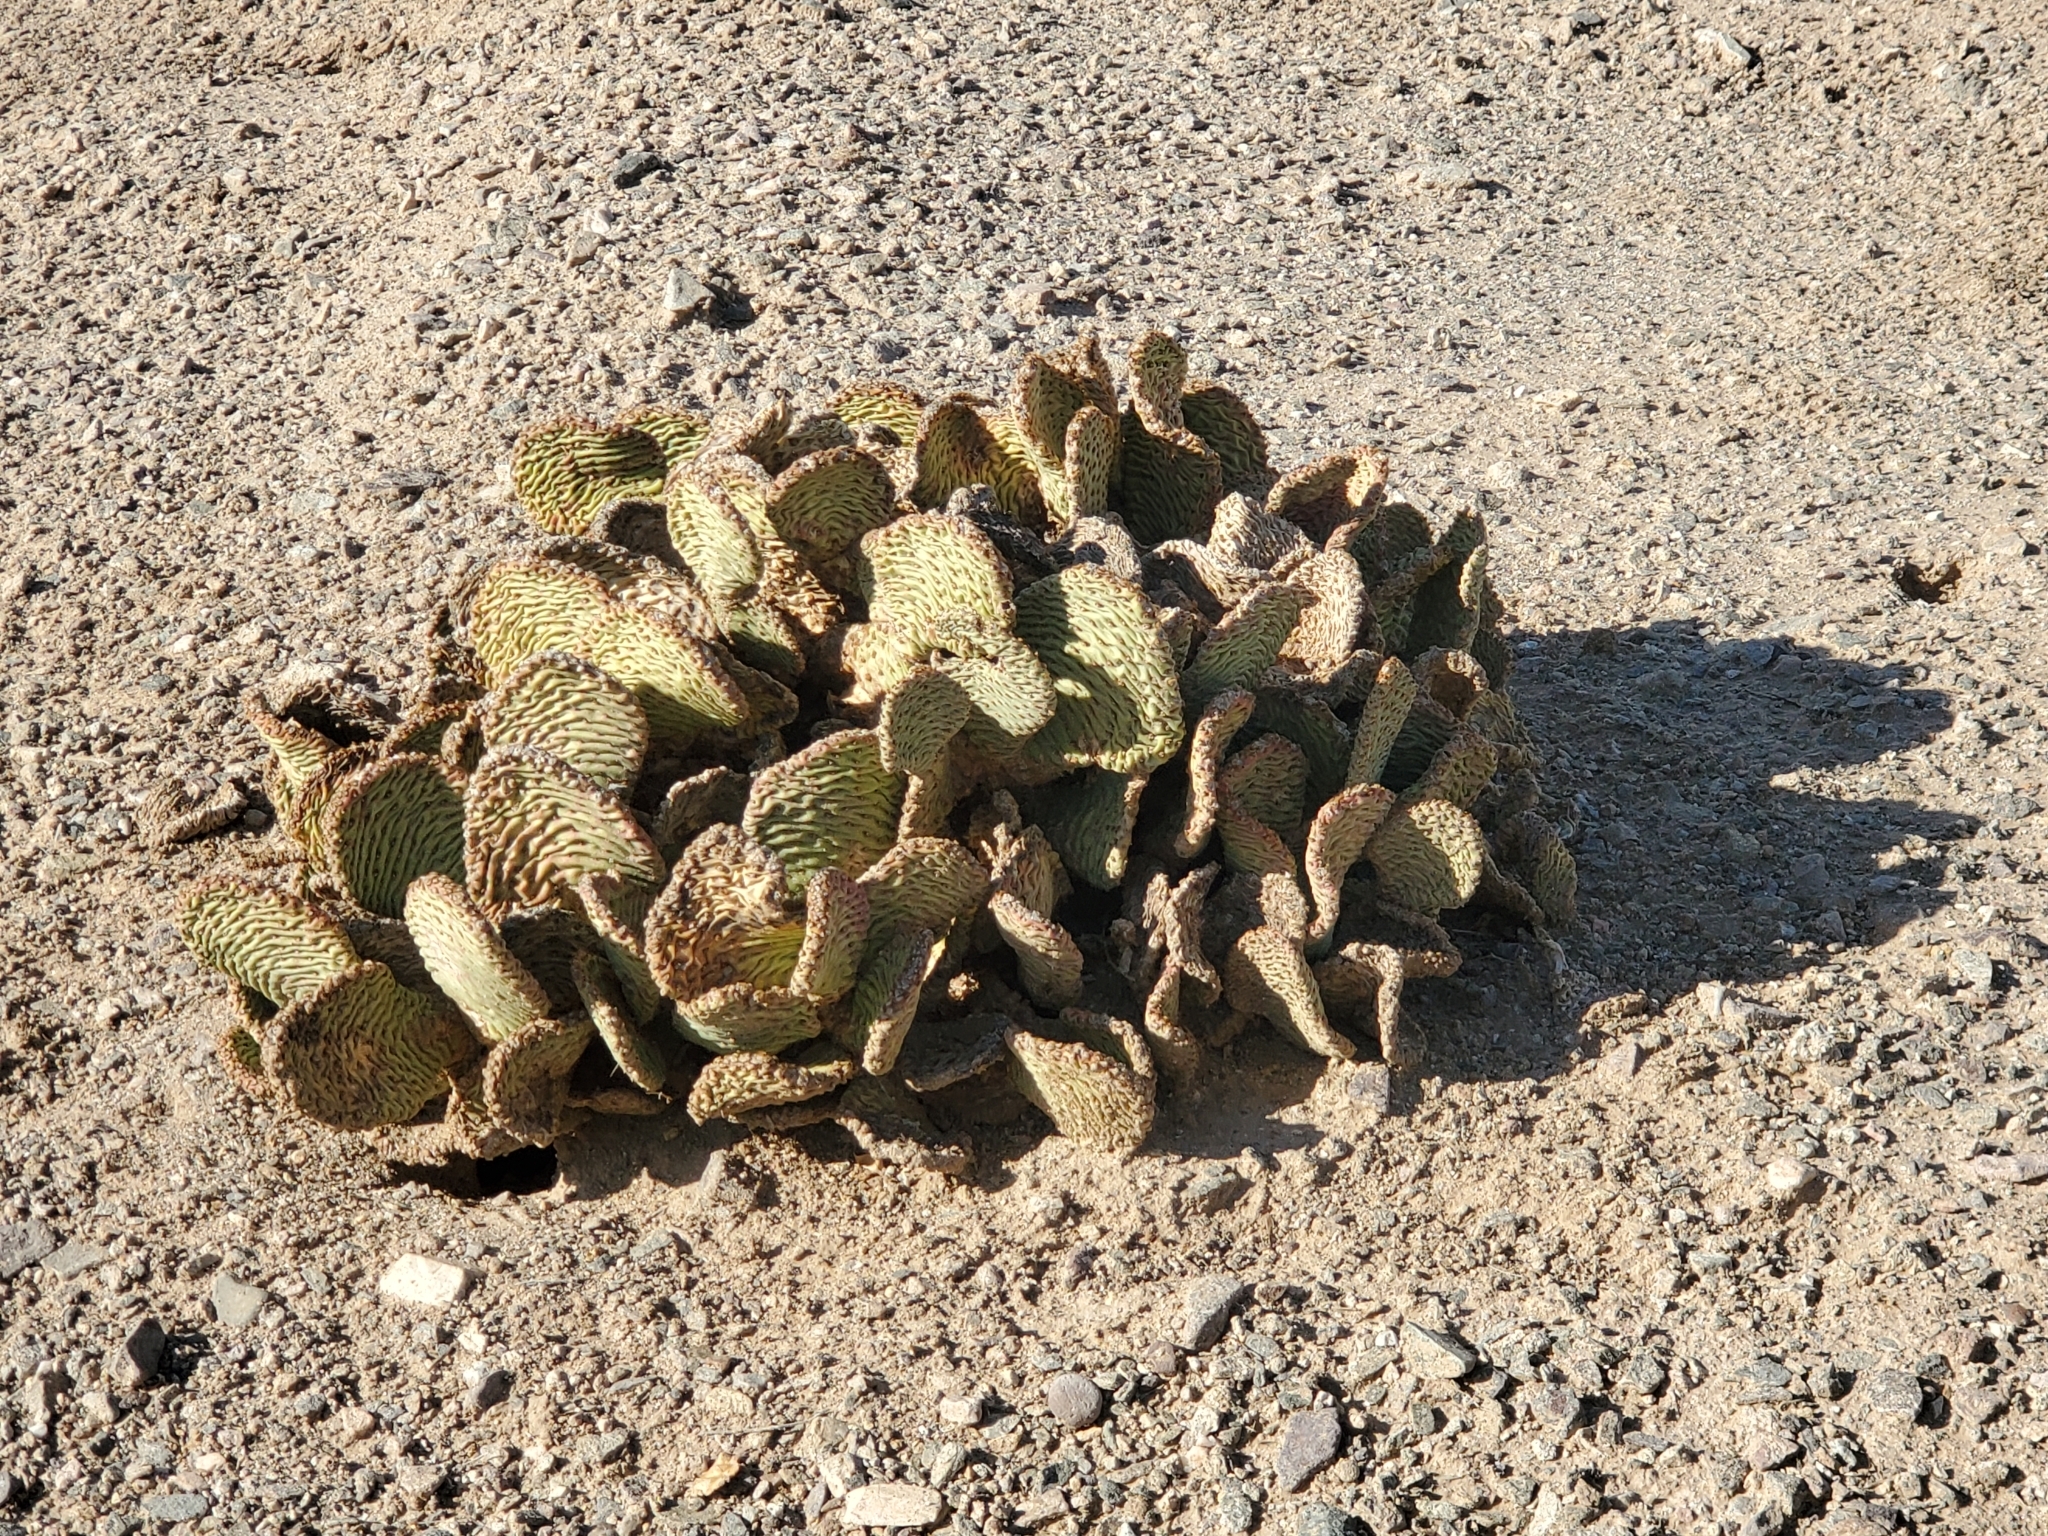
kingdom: Plantae
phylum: Tracheophyta
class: Magnoliopsida
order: Caryophyllales
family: Cactaceae
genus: Opuntia
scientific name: Opuntia basilaris
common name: Beavertail prickly-pear
